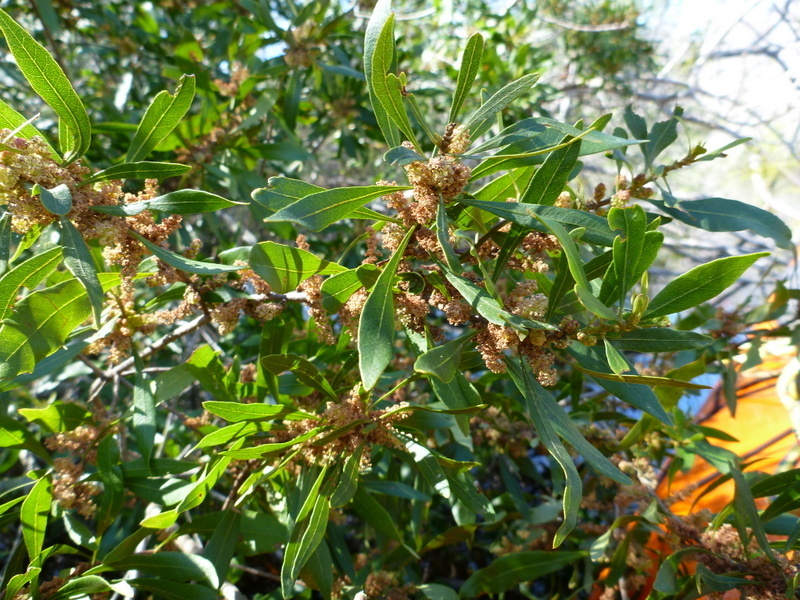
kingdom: Plantae
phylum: Tracheophyta
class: Magnoliopsida
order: Fagales
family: Myricaceae
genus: Morella
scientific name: Morella cerifera
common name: Wax myrtle
